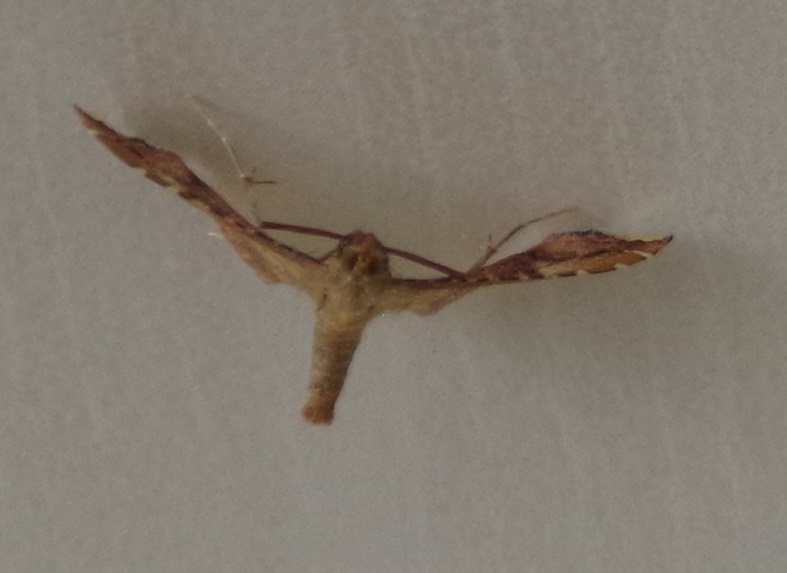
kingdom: Animalia
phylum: Arthropoda
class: Insecta
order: Lepidoptera
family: Pyralidae
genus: Endotricha
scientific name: Endotricha flammealis
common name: Rosy tabby
